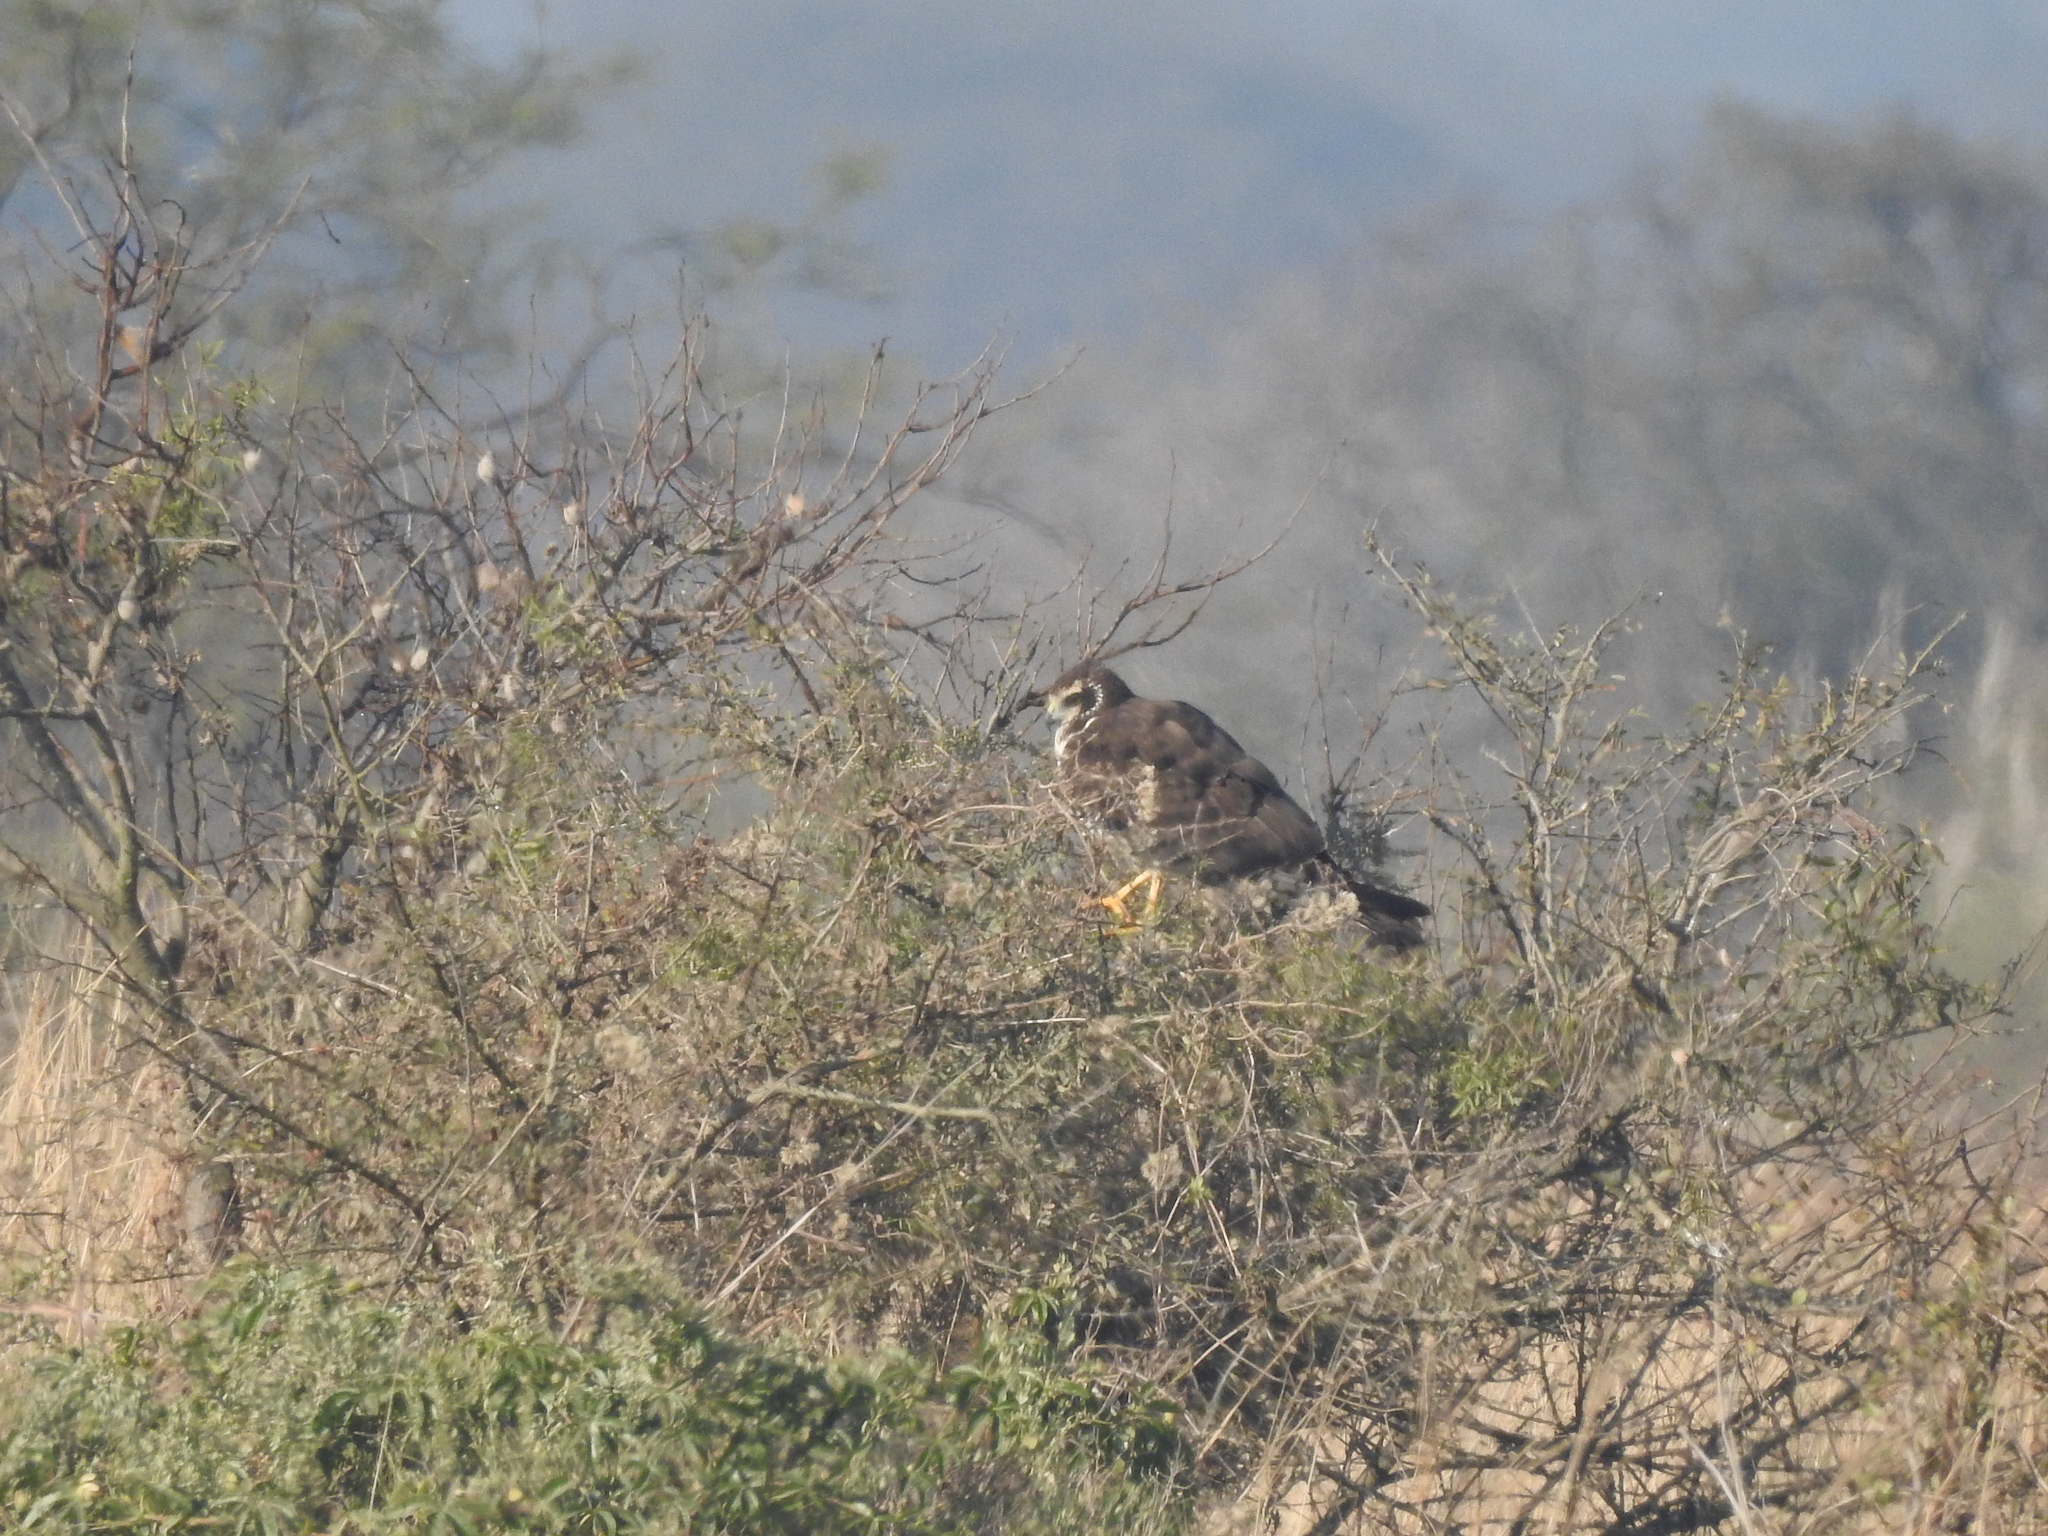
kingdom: Animalia
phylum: Chordata
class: Aves
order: Accipitriformes
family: Accipitridae
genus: Circus
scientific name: Circus buffoni
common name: Long-winged harrier
